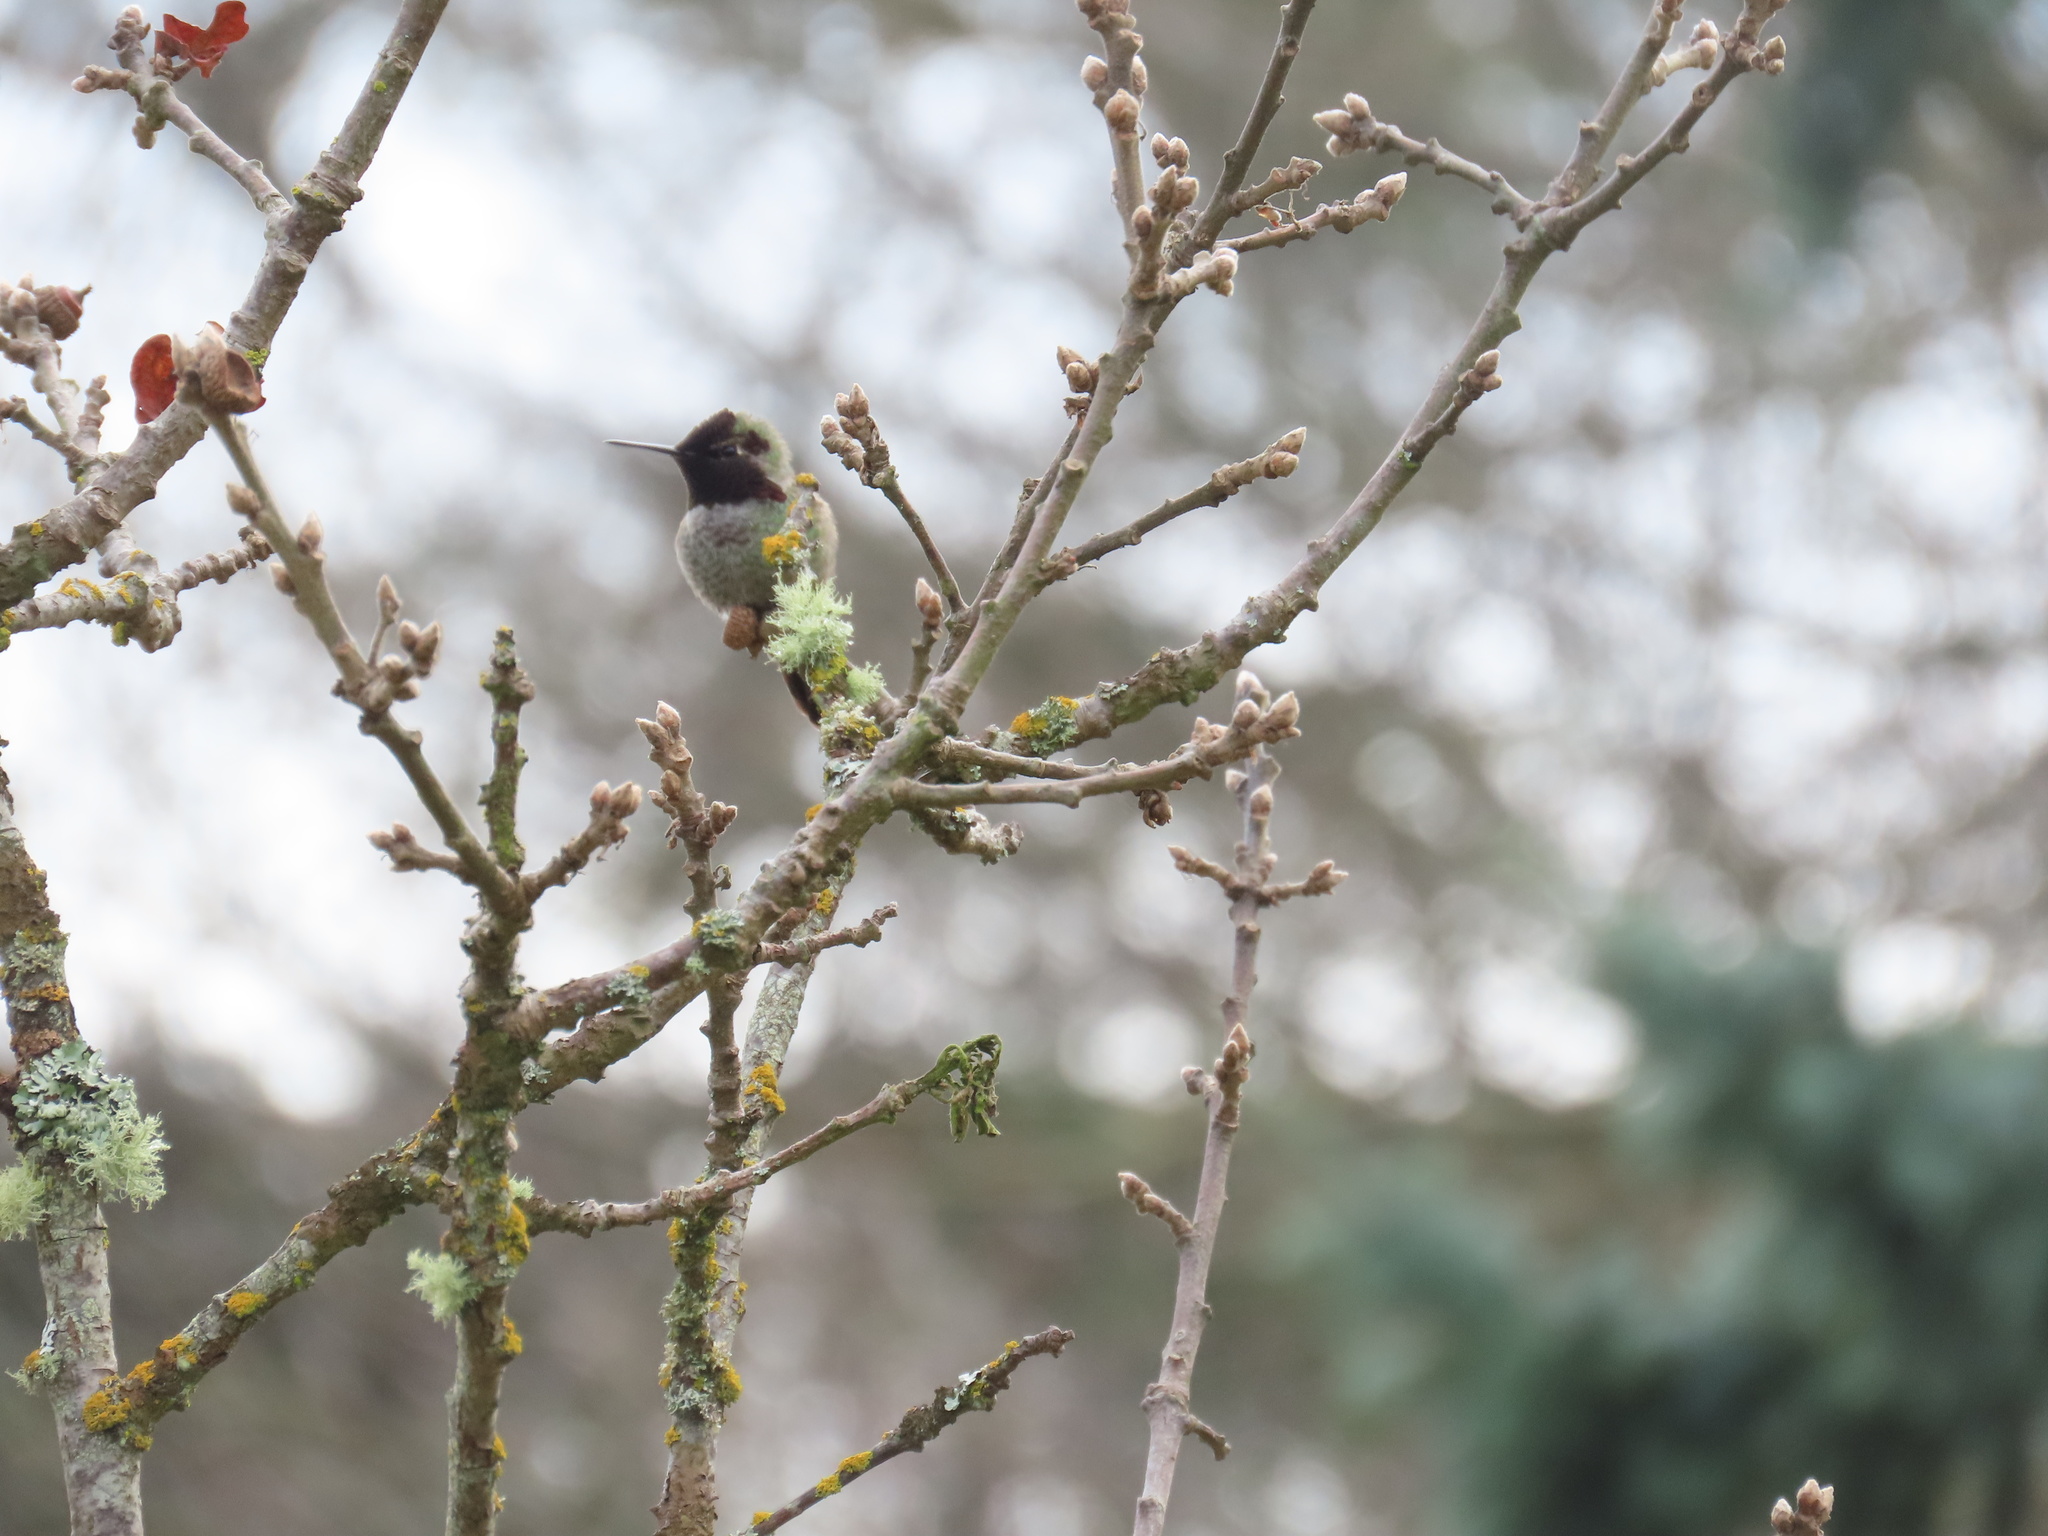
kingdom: Animalia
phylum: Chordata
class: Aves
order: Apodiformes
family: Trochilidae
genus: Calypte
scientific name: Calypte anna
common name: Anna's hummingbird
